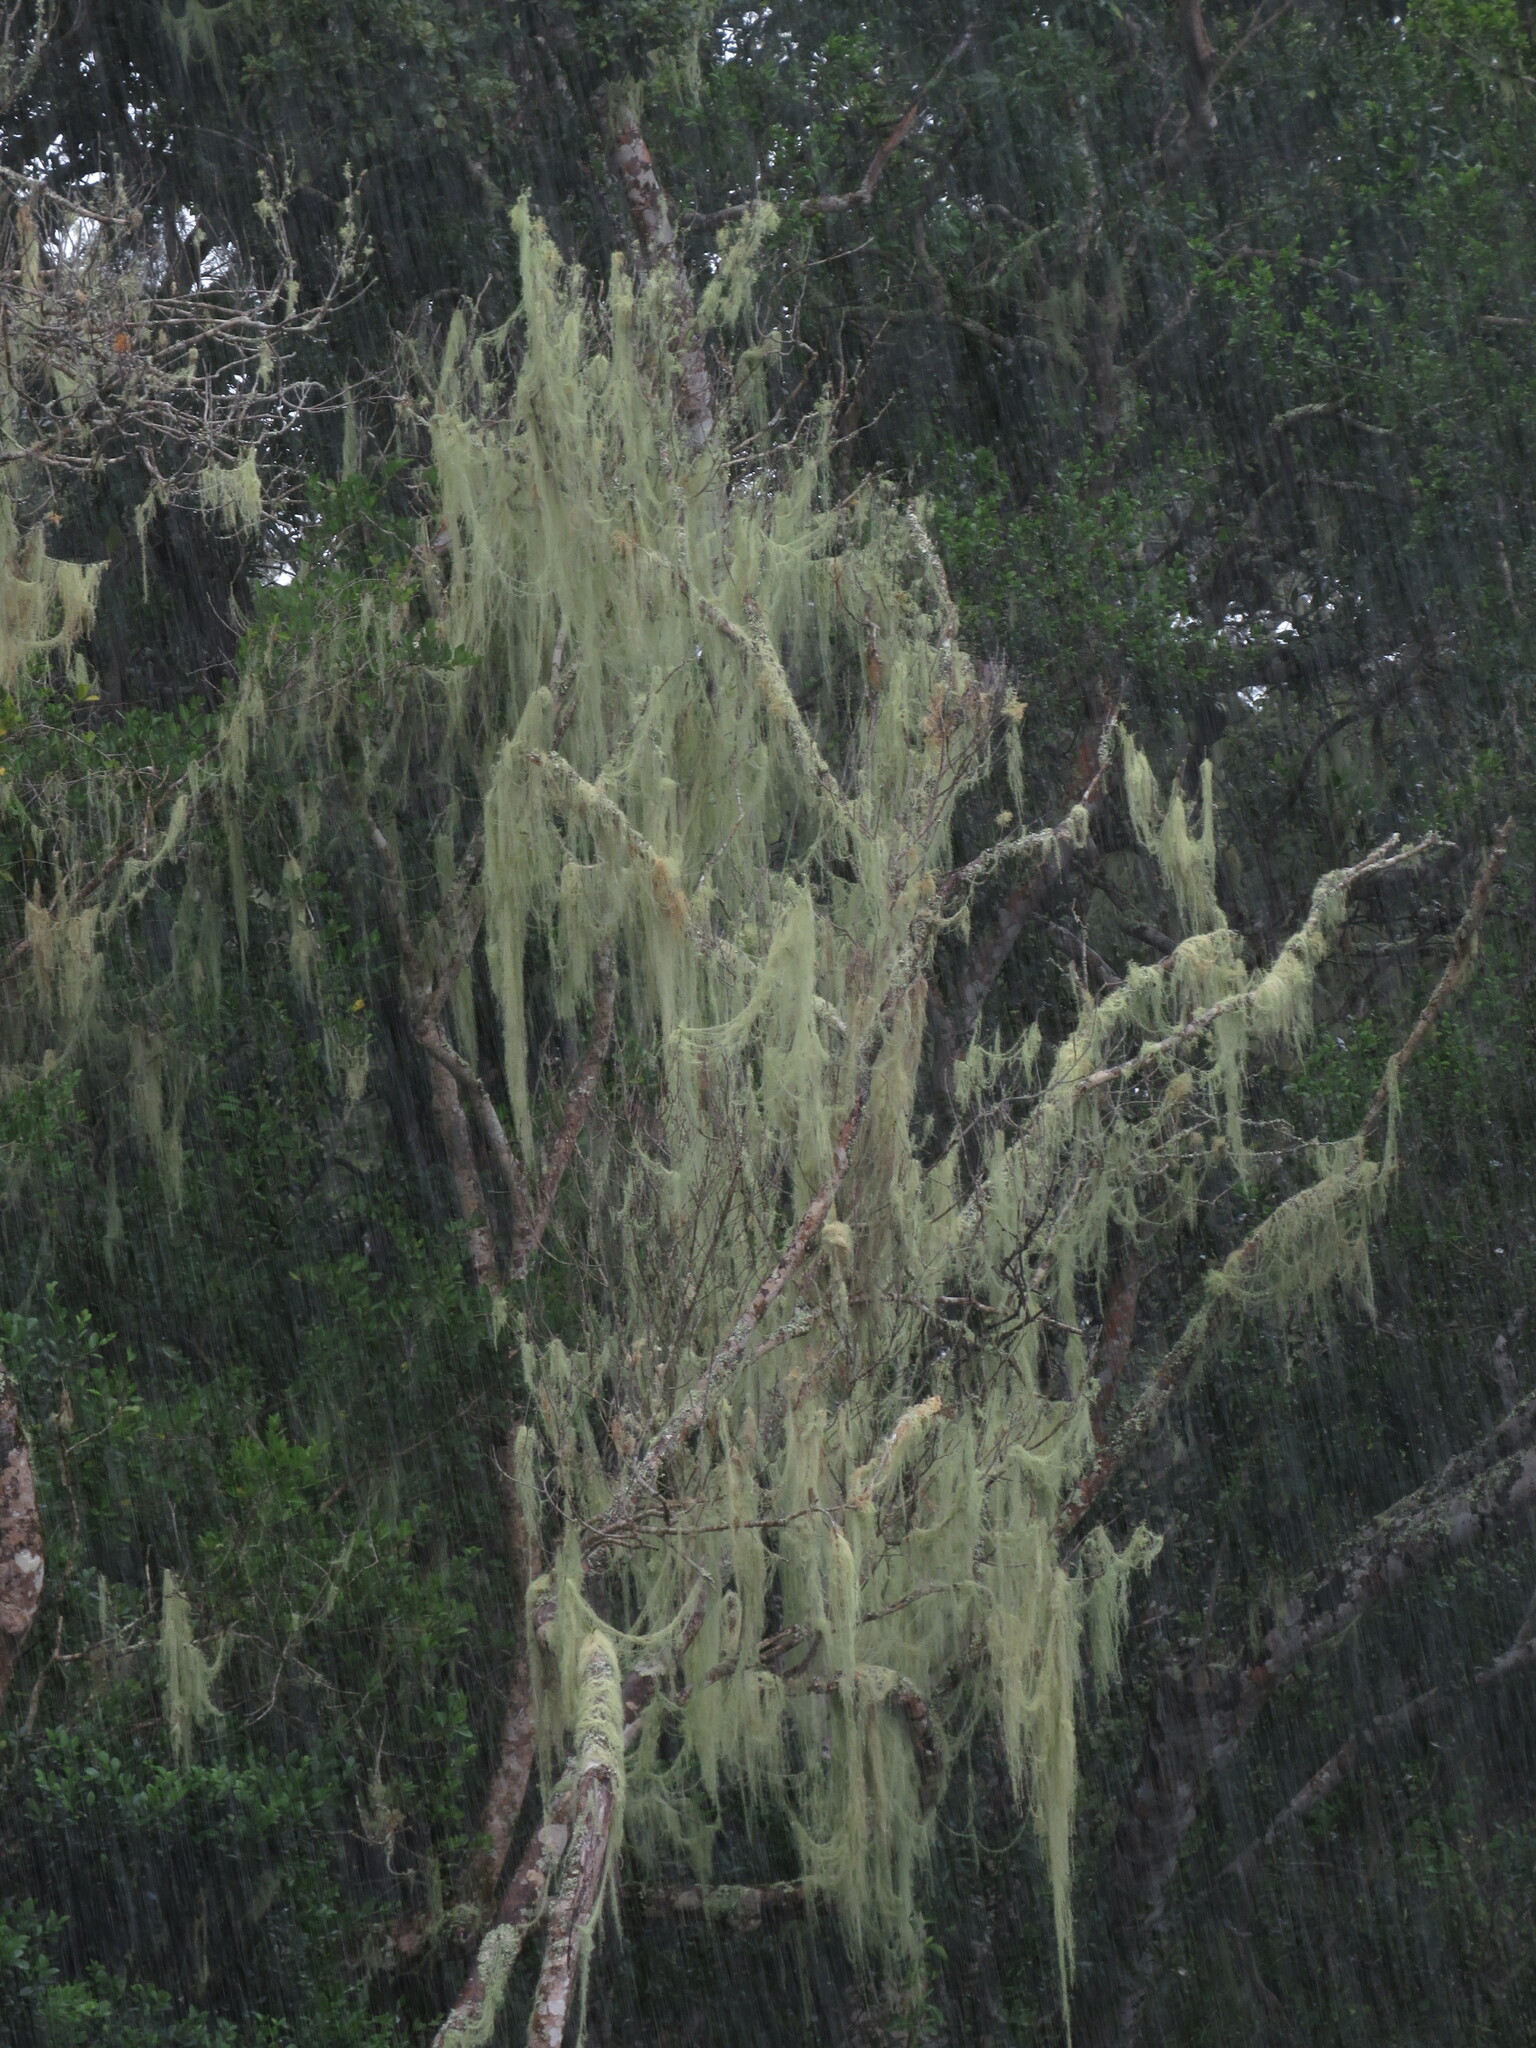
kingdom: Fungi
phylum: Ascomycota
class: Lecanoromycetes
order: Lecanorales
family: Parmeliaceae
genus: Dolichousnea
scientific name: Dolichousnea trichodeoides
